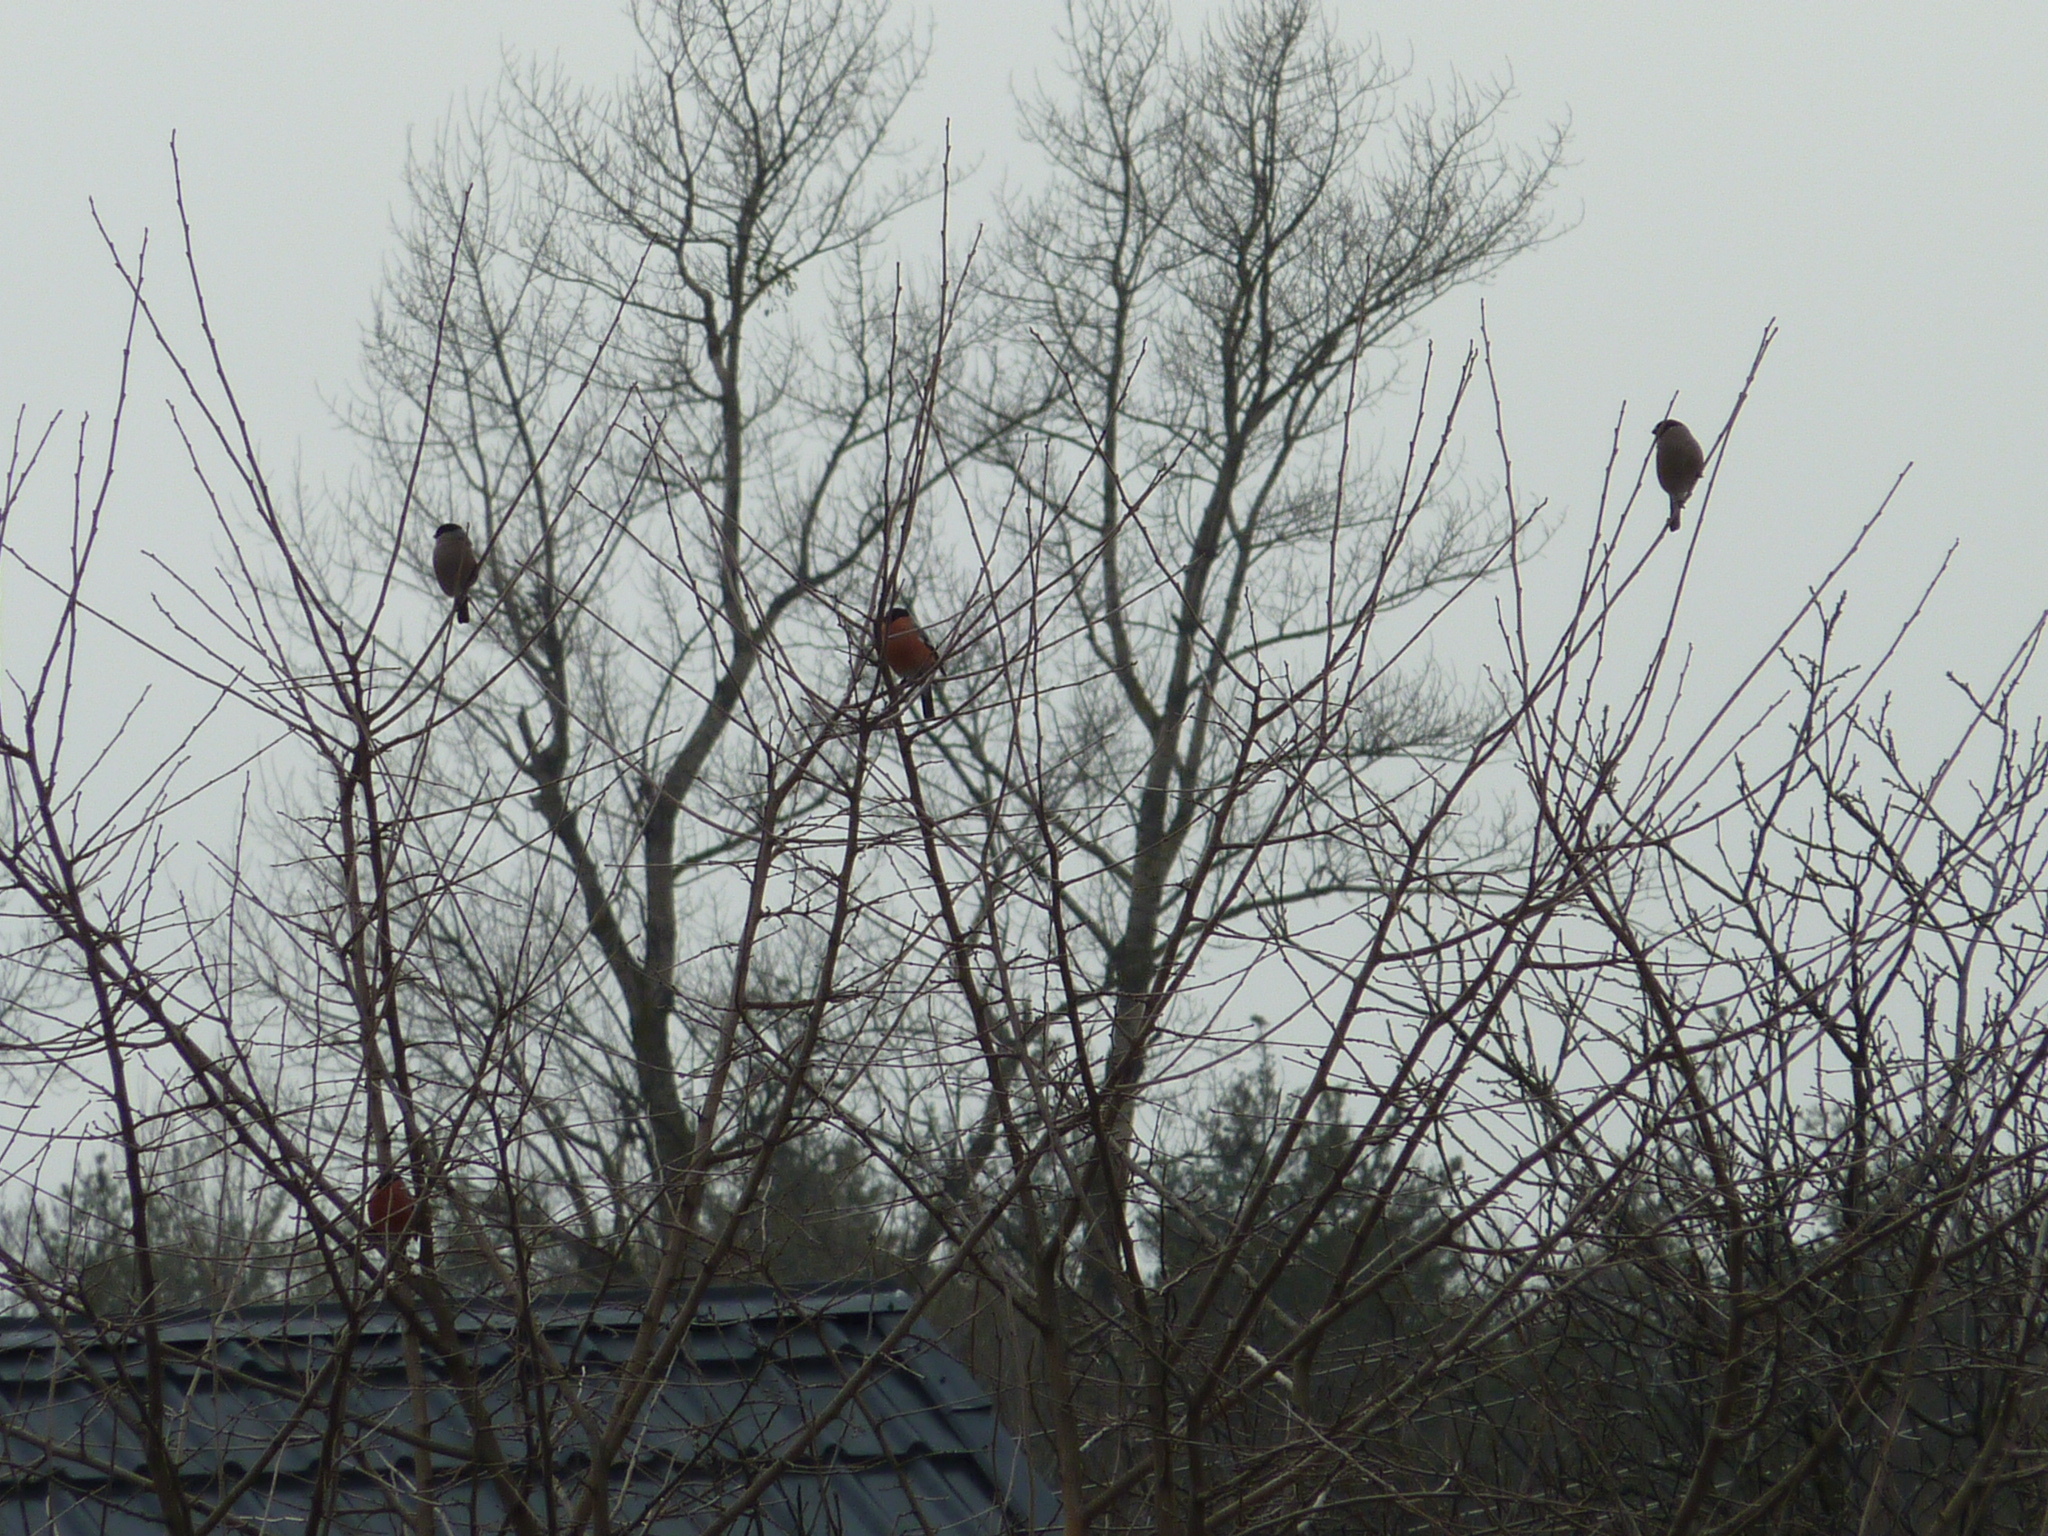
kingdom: Animalia
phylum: Chordata
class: Aves
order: Passeriformes
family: Fringillidae
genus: Pyrrhula
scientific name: Pyrrhula pyrrhula
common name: Eurasian bullfinch
